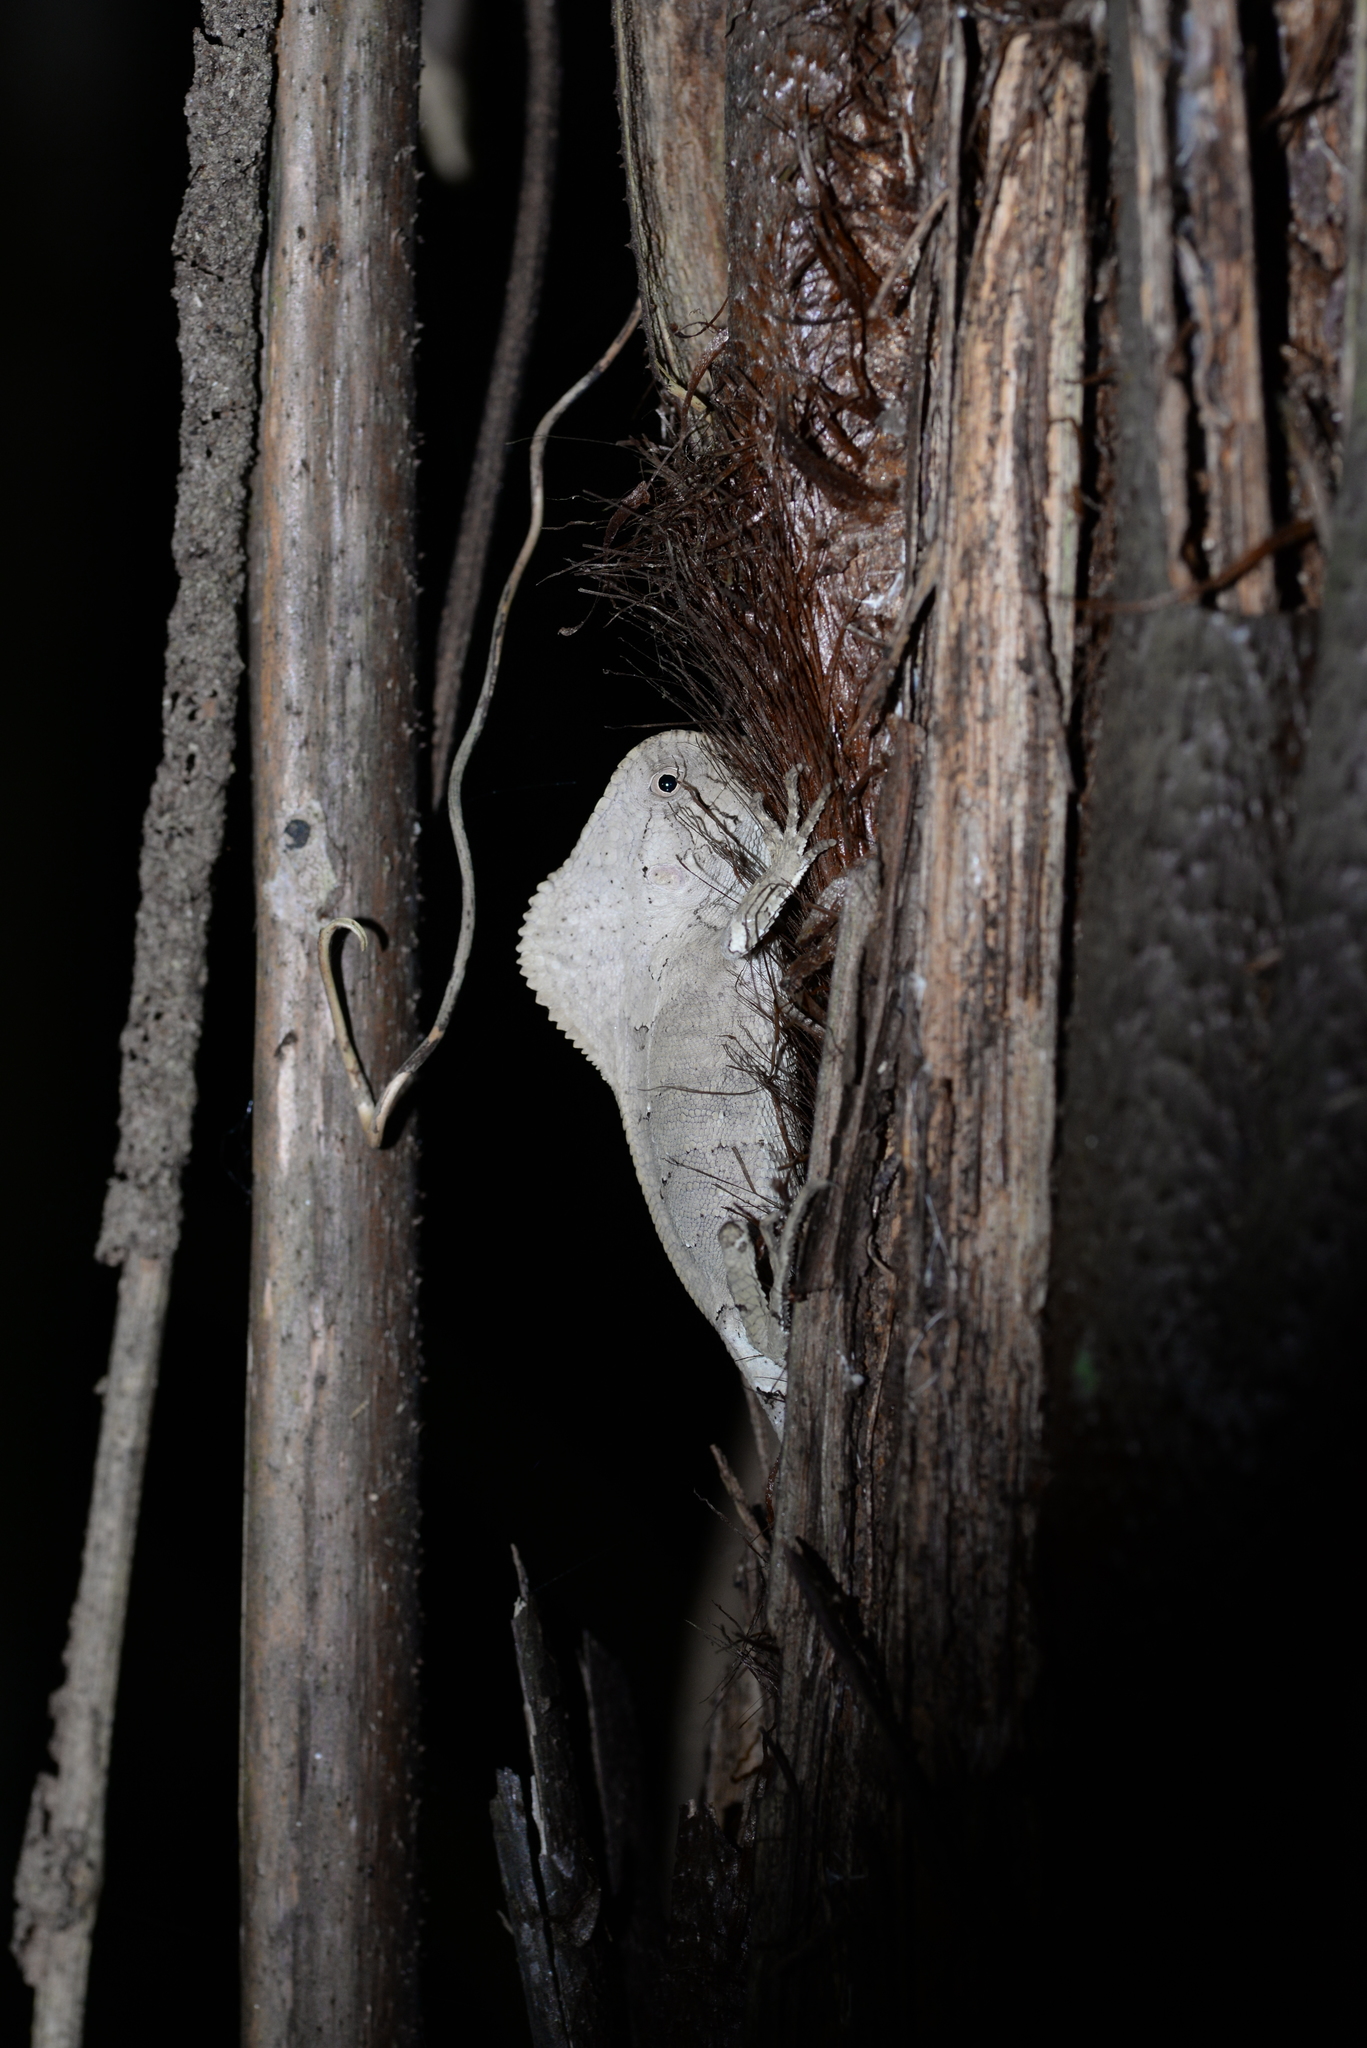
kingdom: Animalia
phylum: Chordata
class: Squamata
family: Corytophanidae
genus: Corytophanes
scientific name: Corytophanes cristatus
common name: Smooth helmeted iguana
